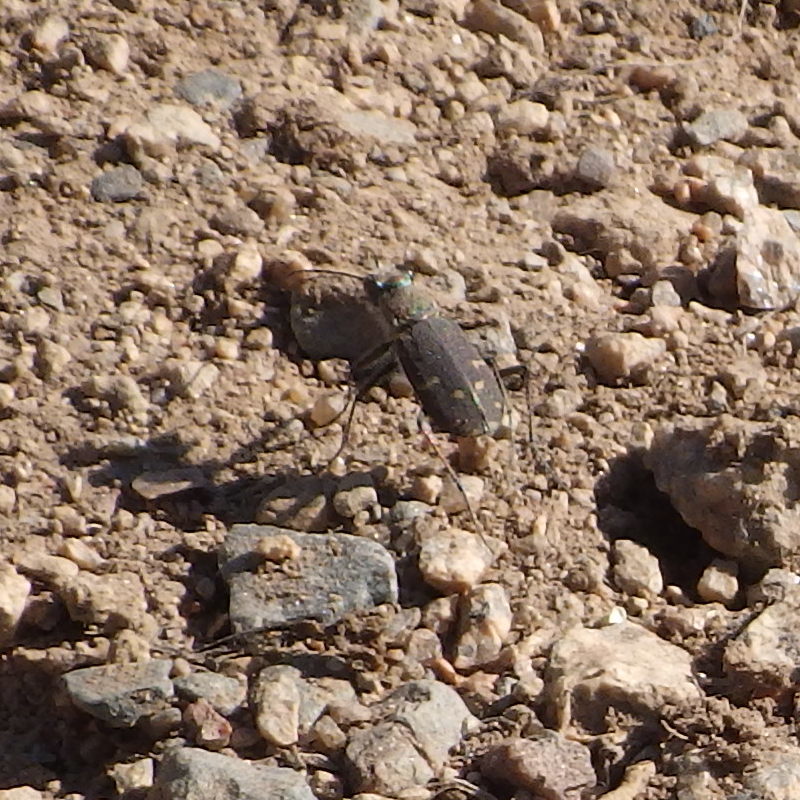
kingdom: Animalia
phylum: Arthropoda
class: Insecta
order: Coleoptera
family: Carabidae
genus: Cicindela
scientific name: Cicindela duodecimguttata
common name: Twelve-spotted tiger beetle
